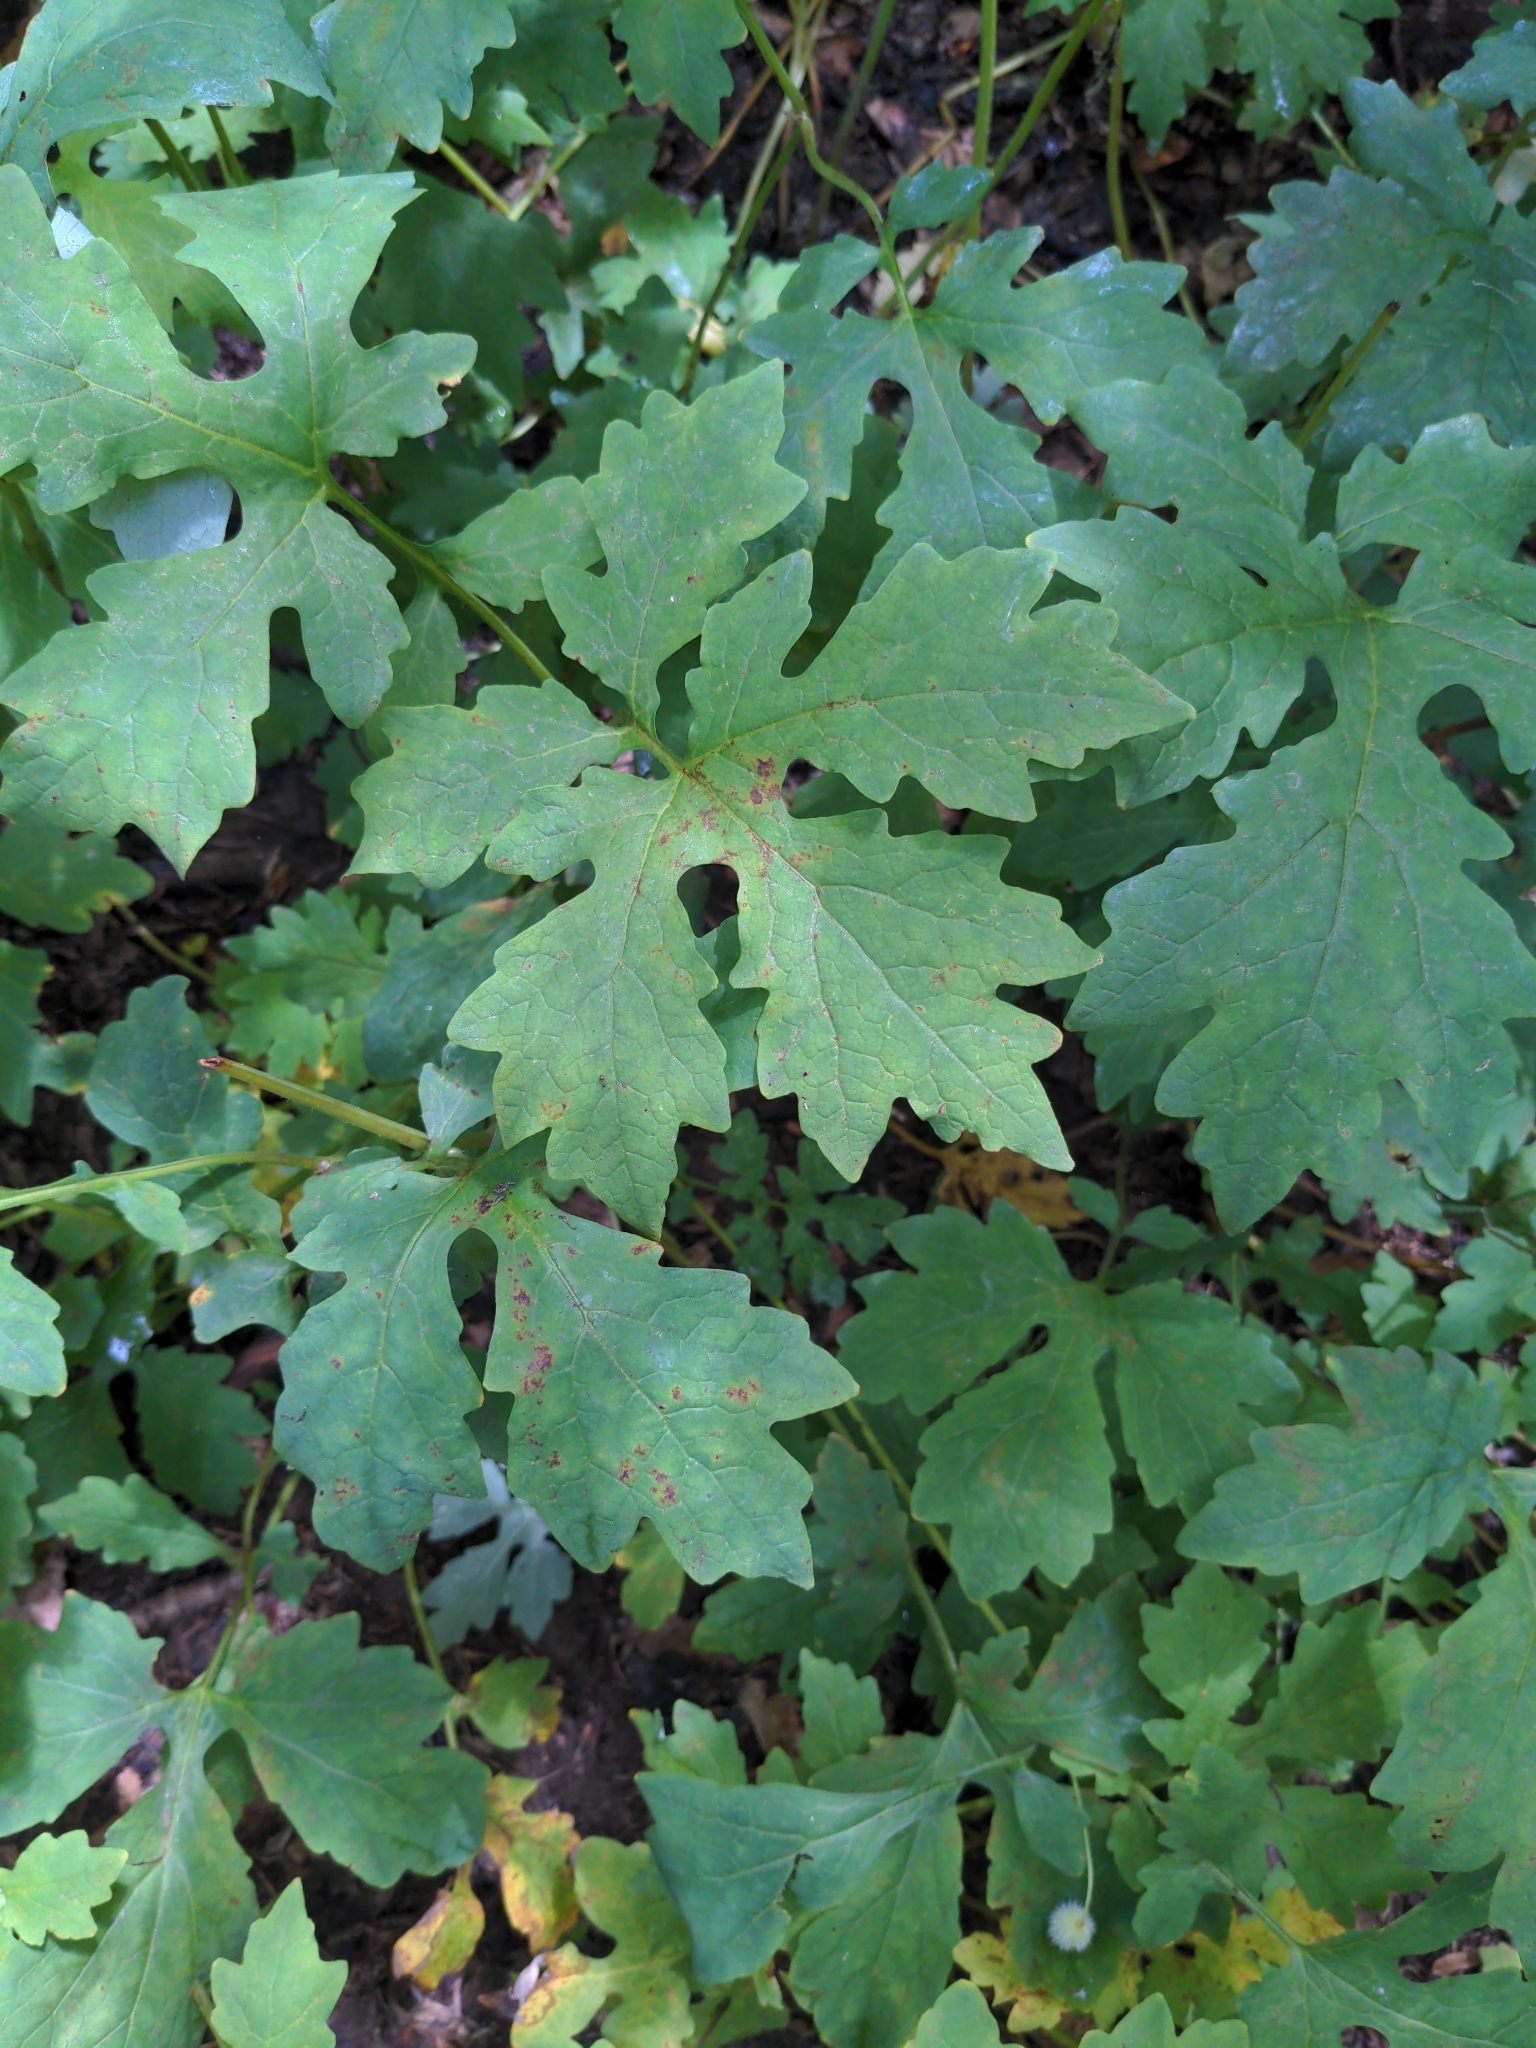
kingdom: Plantae
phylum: Tracheophyta
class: Magnoliopsida
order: Ranunculales
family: Papaveraceae
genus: Stylophorum
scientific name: Stylophorum diphyllum
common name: Celandine poppy
